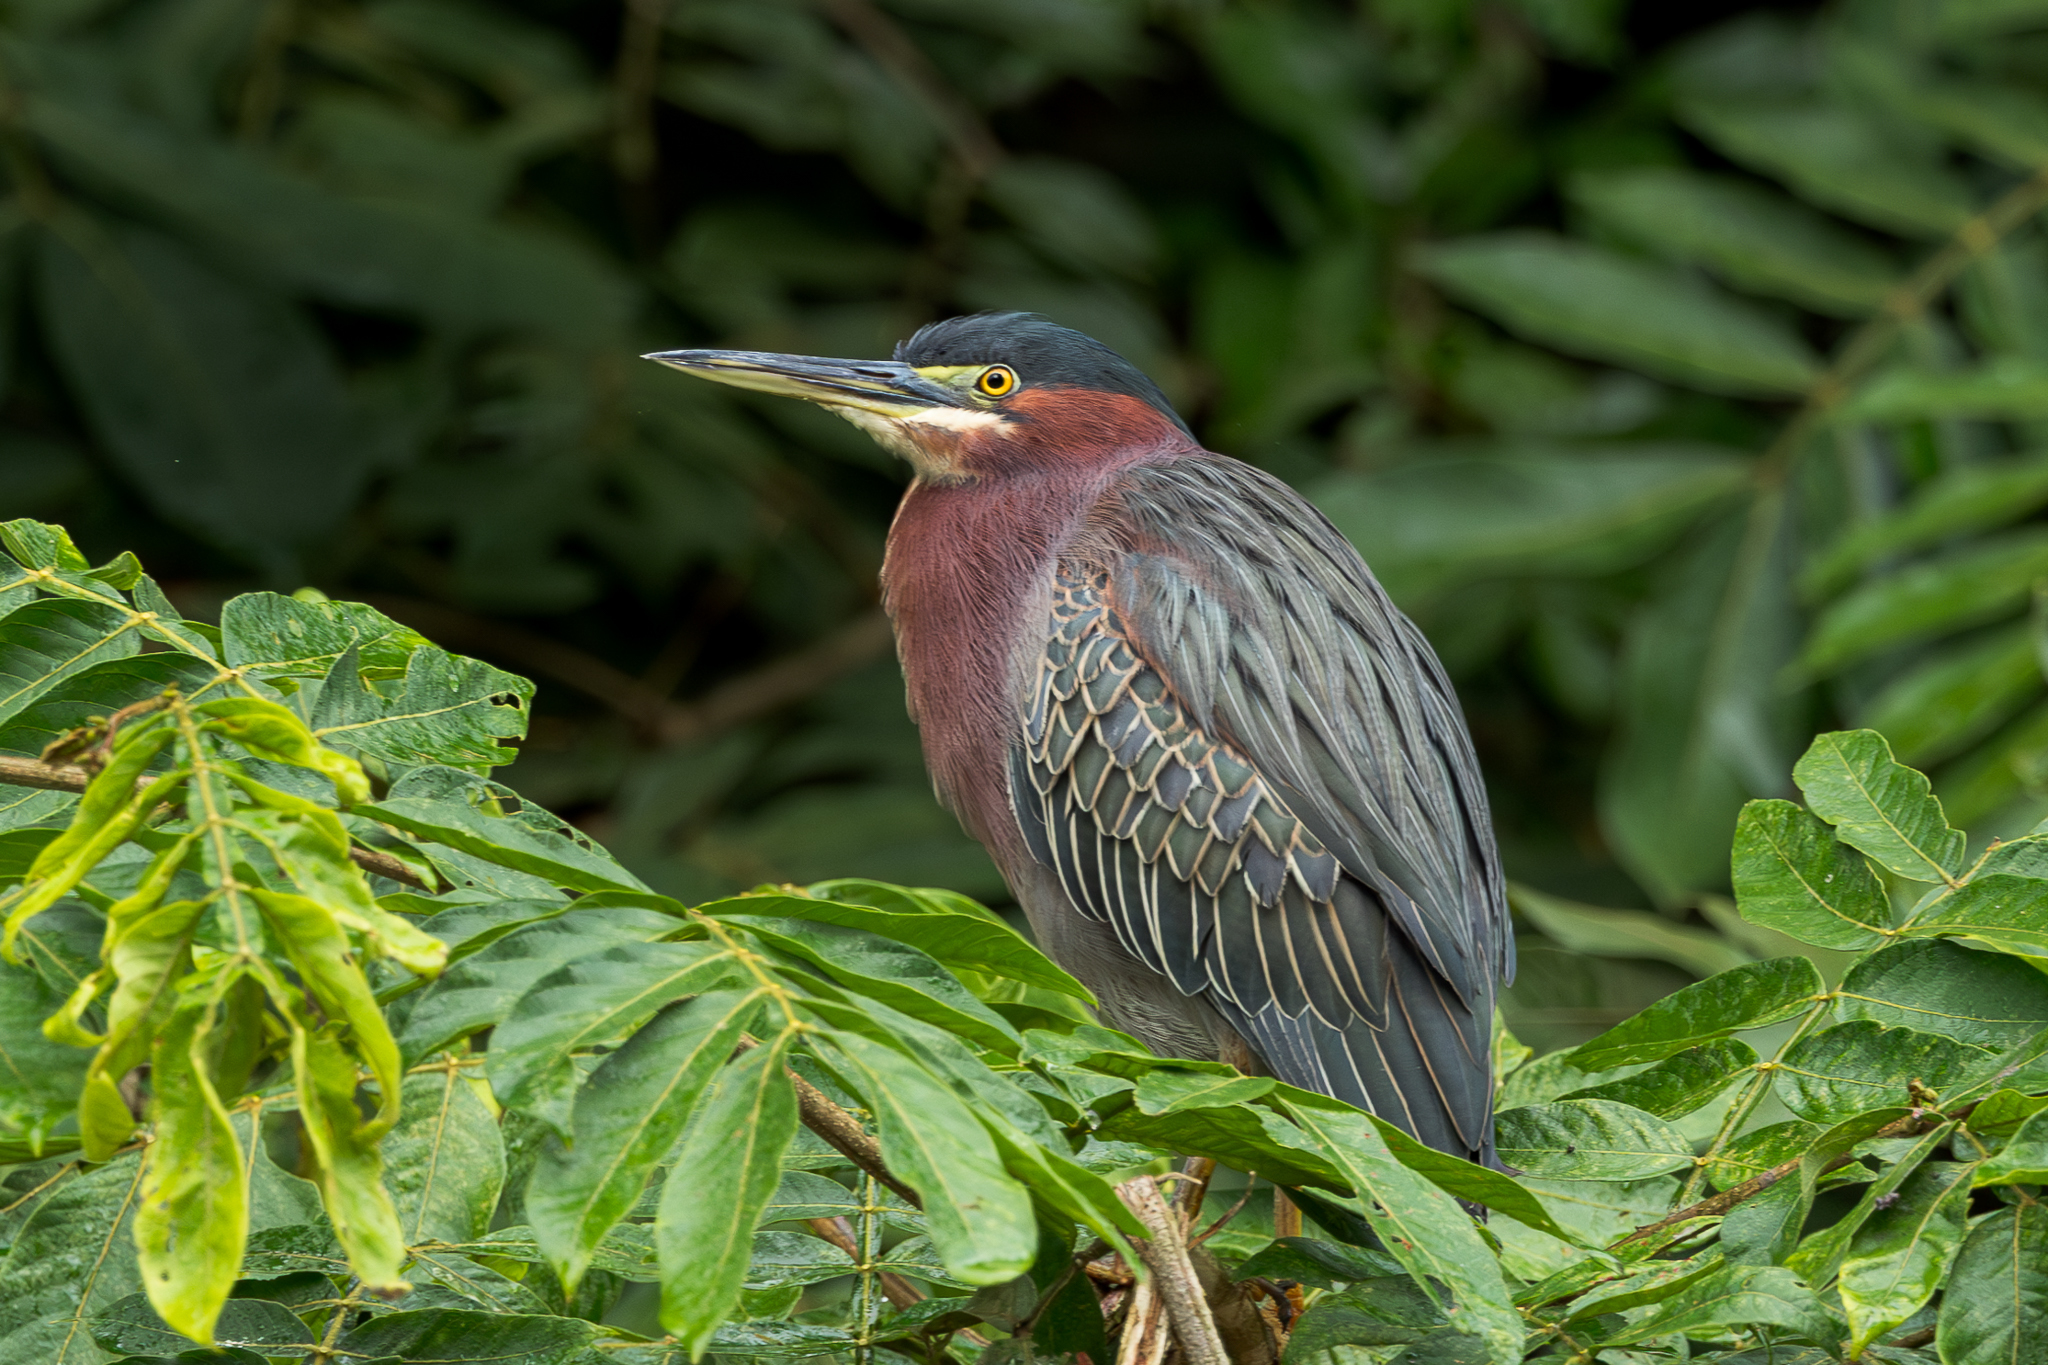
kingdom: Animalia
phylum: Chordata
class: Aves
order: Pelecaniformes
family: Ardeidae
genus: Butorides
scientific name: Butorides virescens
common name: Green heron
